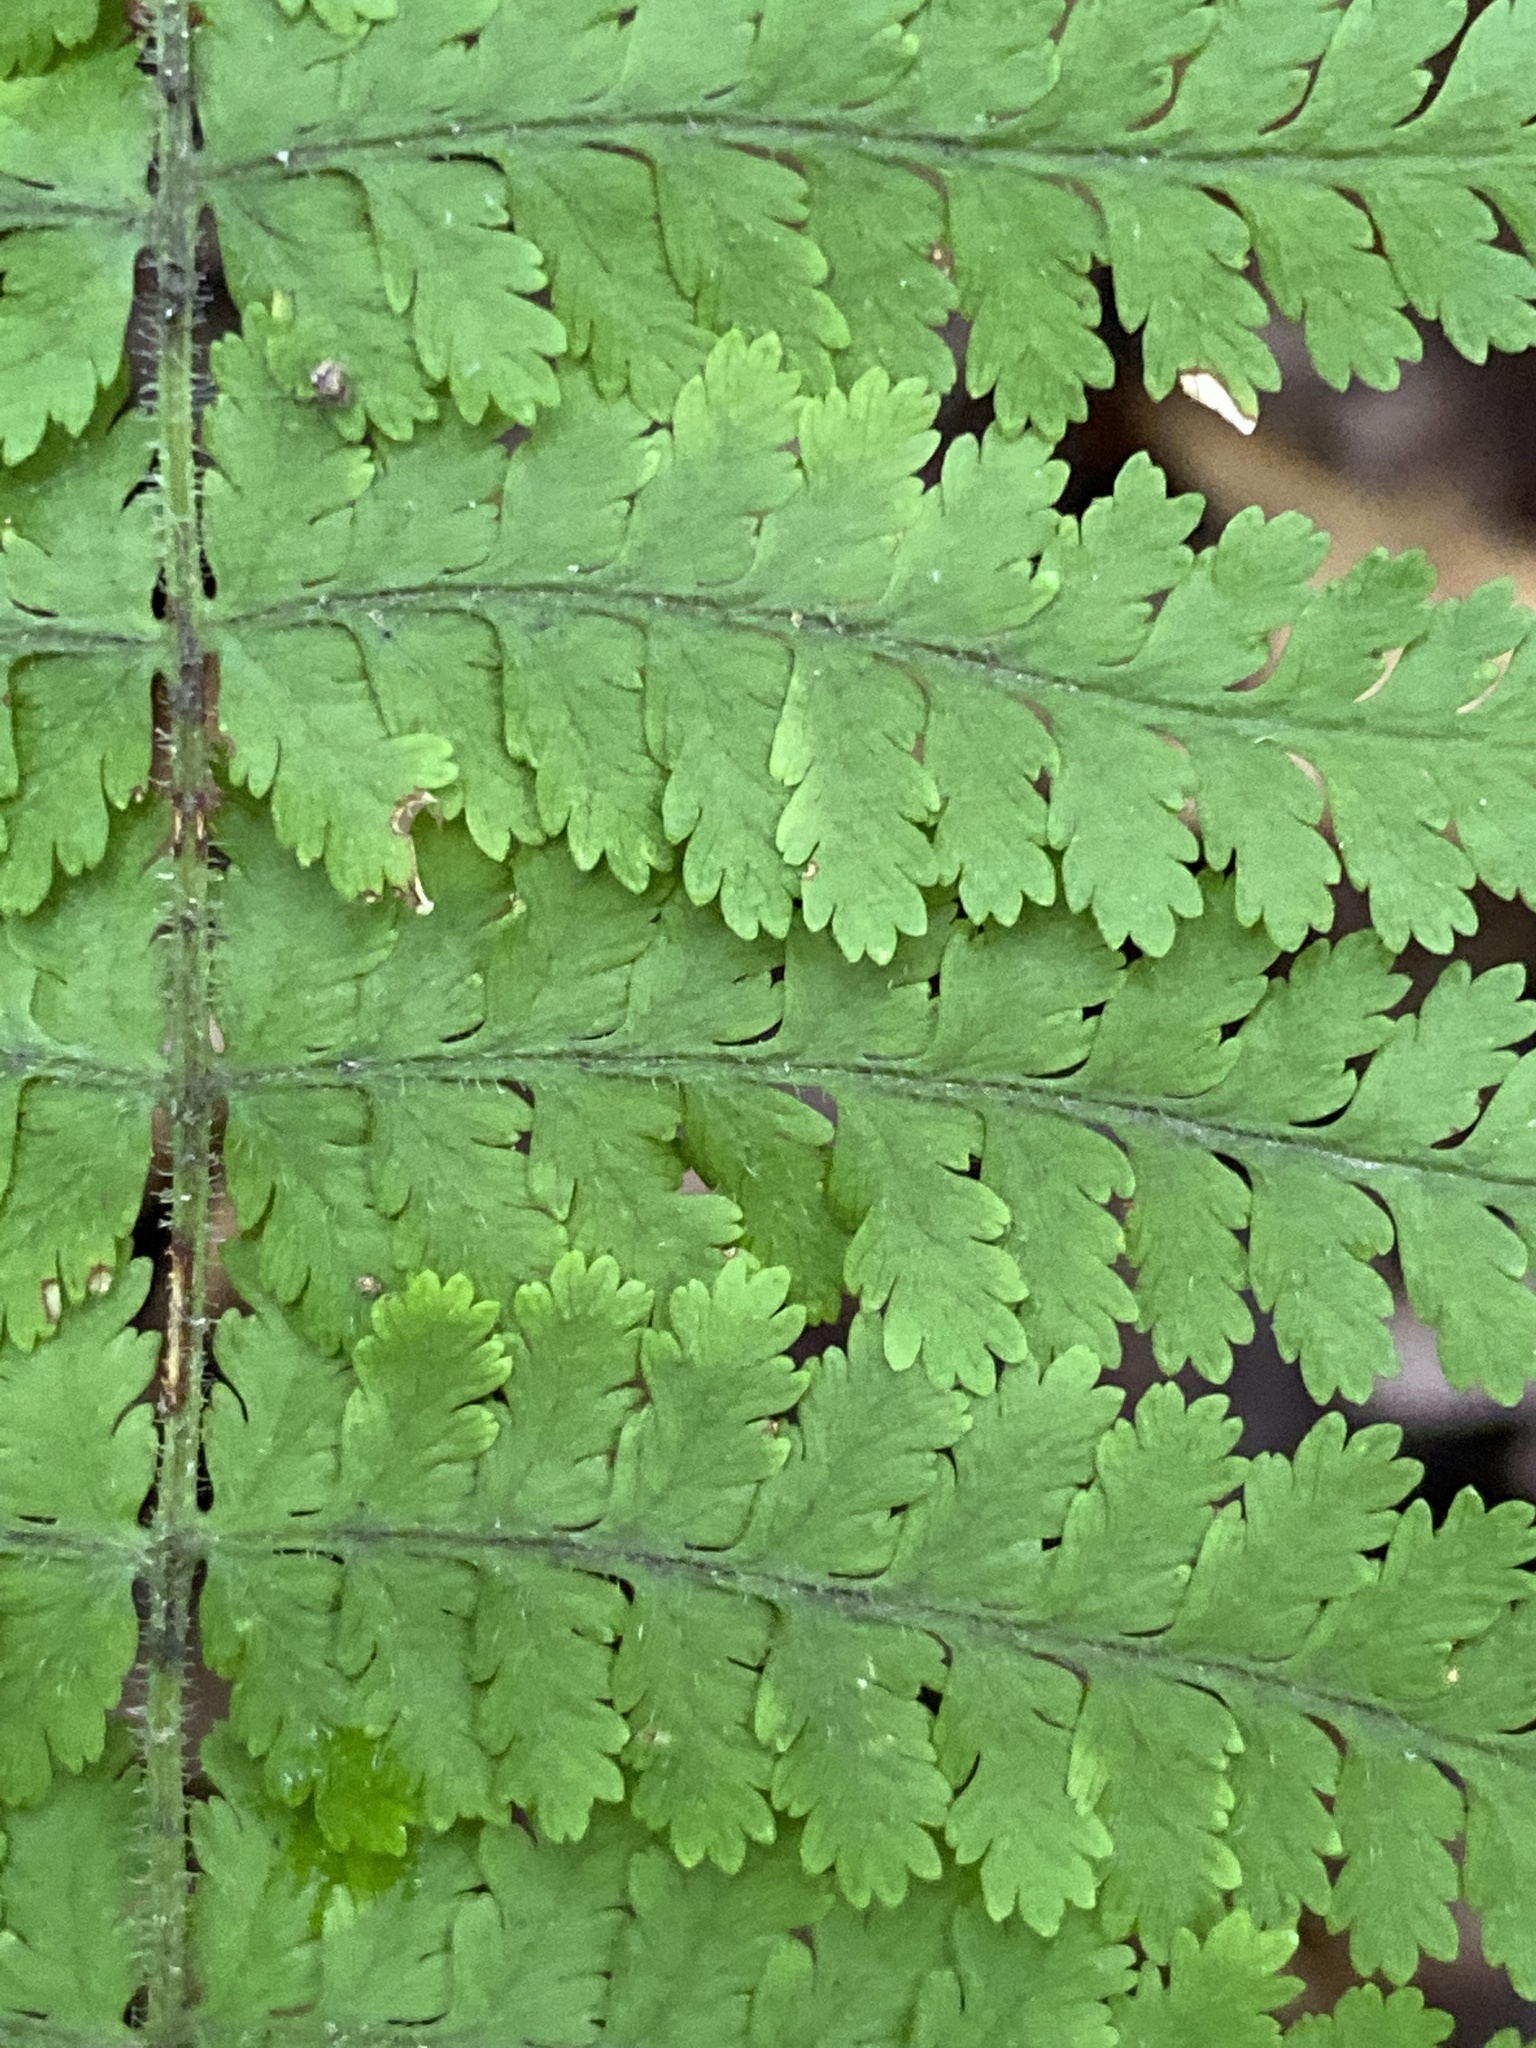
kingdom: Plantae
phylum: Tracheophyta
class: Polypodiopsida
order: Polypodiales
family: Dennstaedtiaceae
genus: Sitobolium
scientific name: Sitobolium punctilobum
